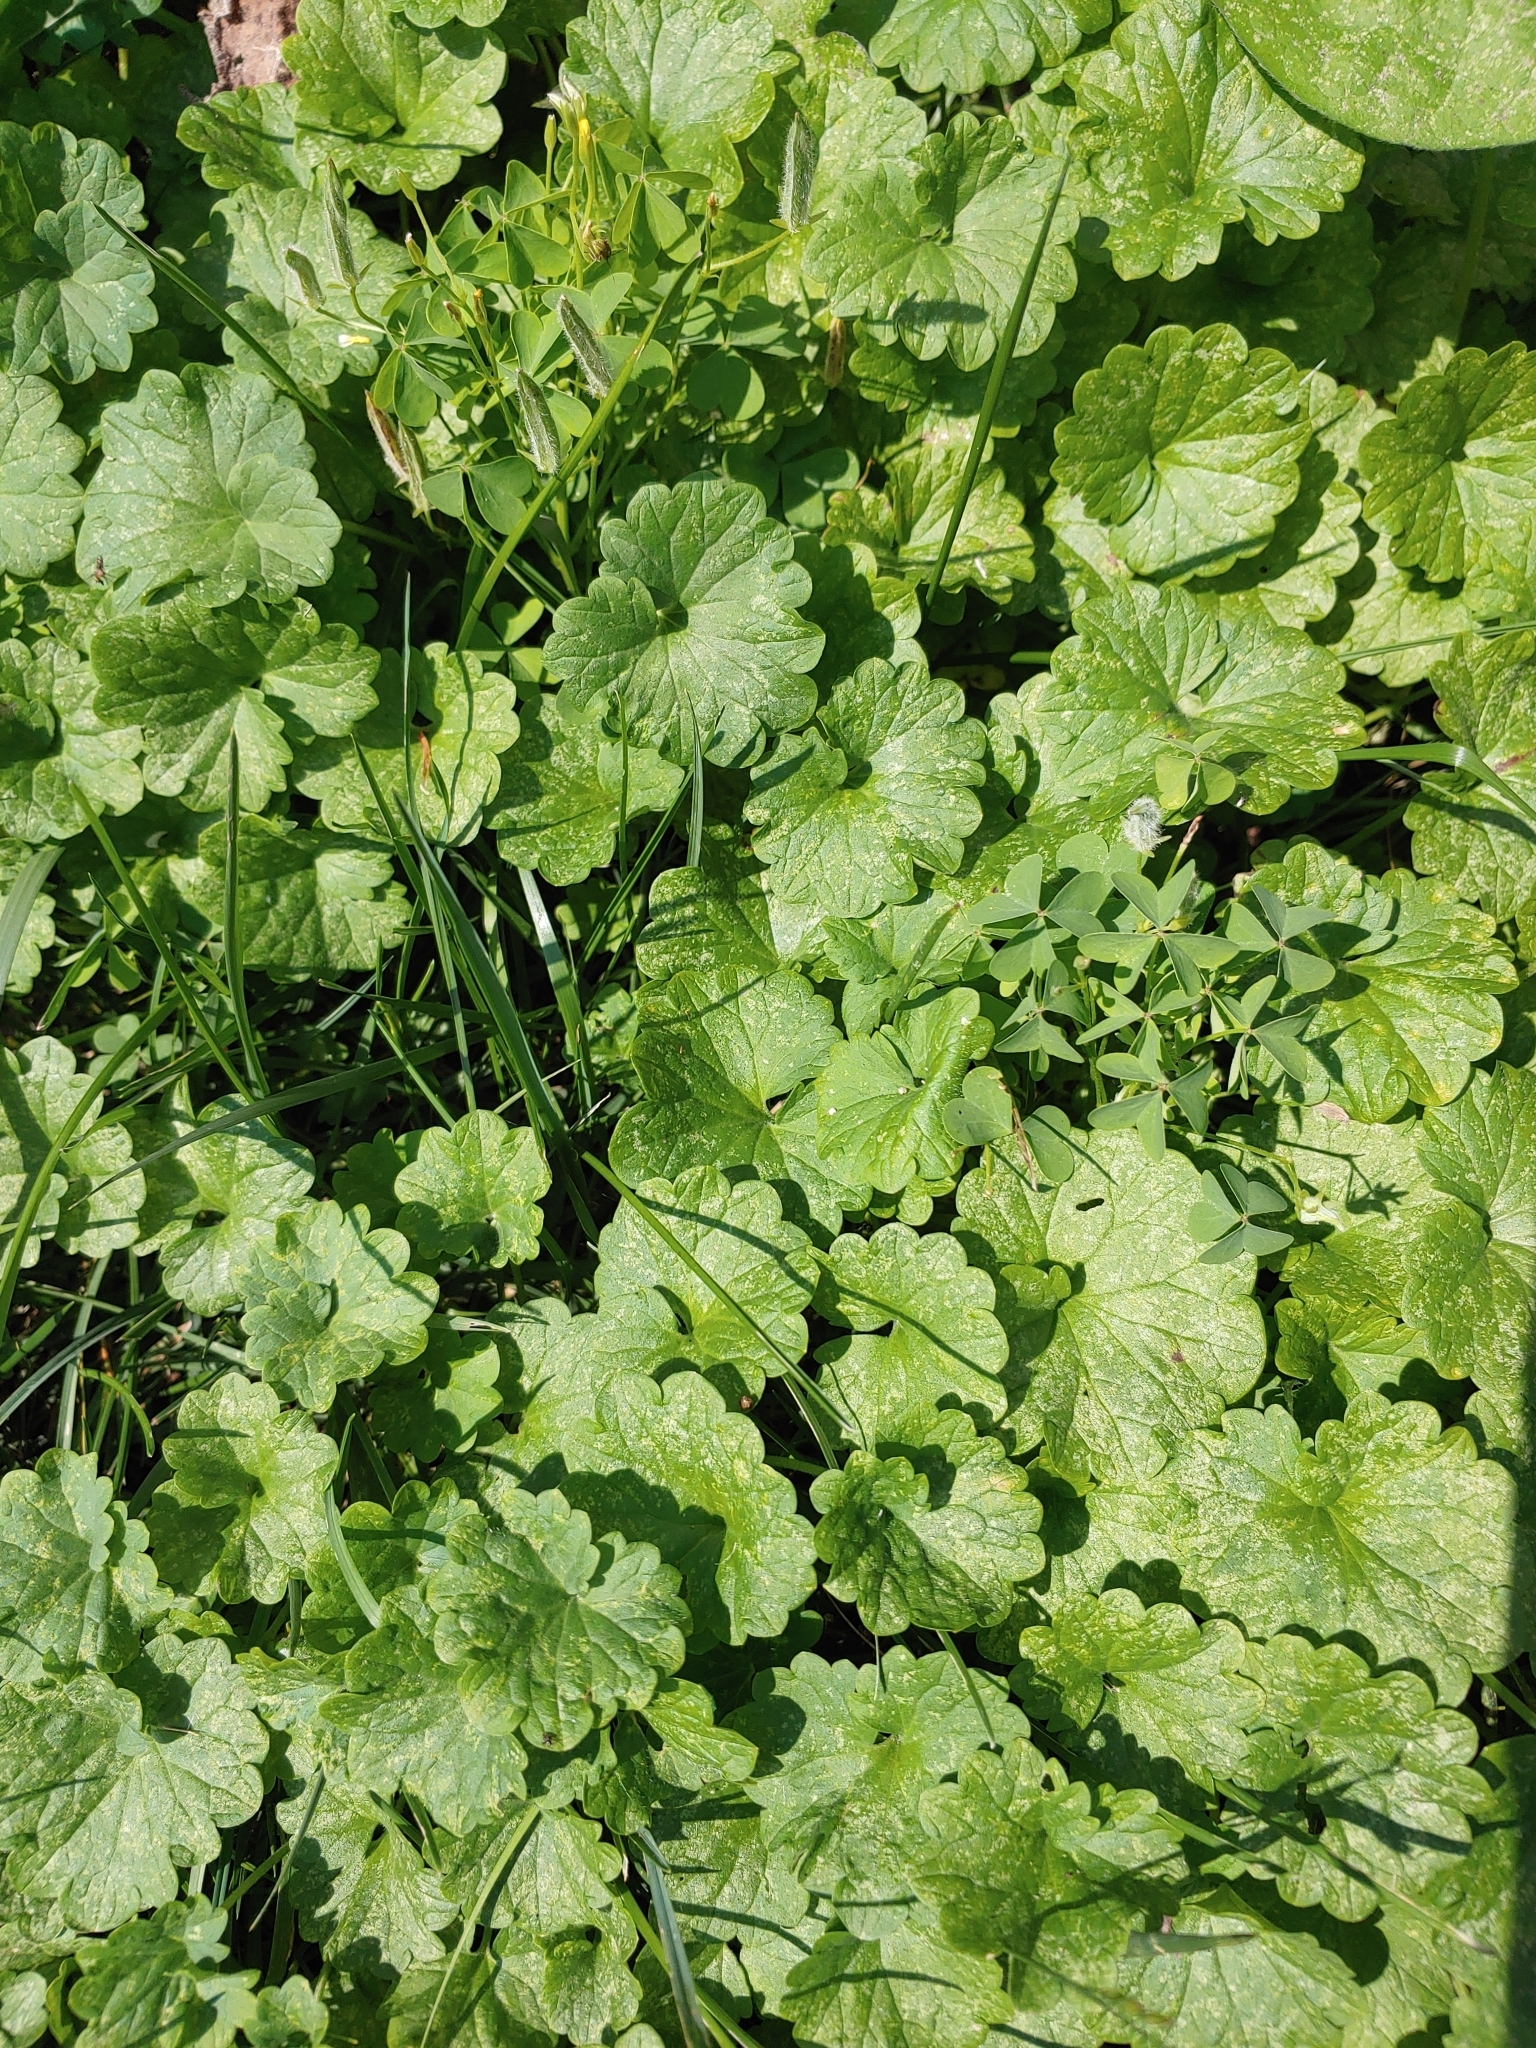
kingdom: Plantae
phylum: Tracheophyta
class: Magnoliopsida
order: Lamiales
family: Lamiaceae
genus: Glechoma
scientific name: Glechoma hederacea
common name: Ground ivy
